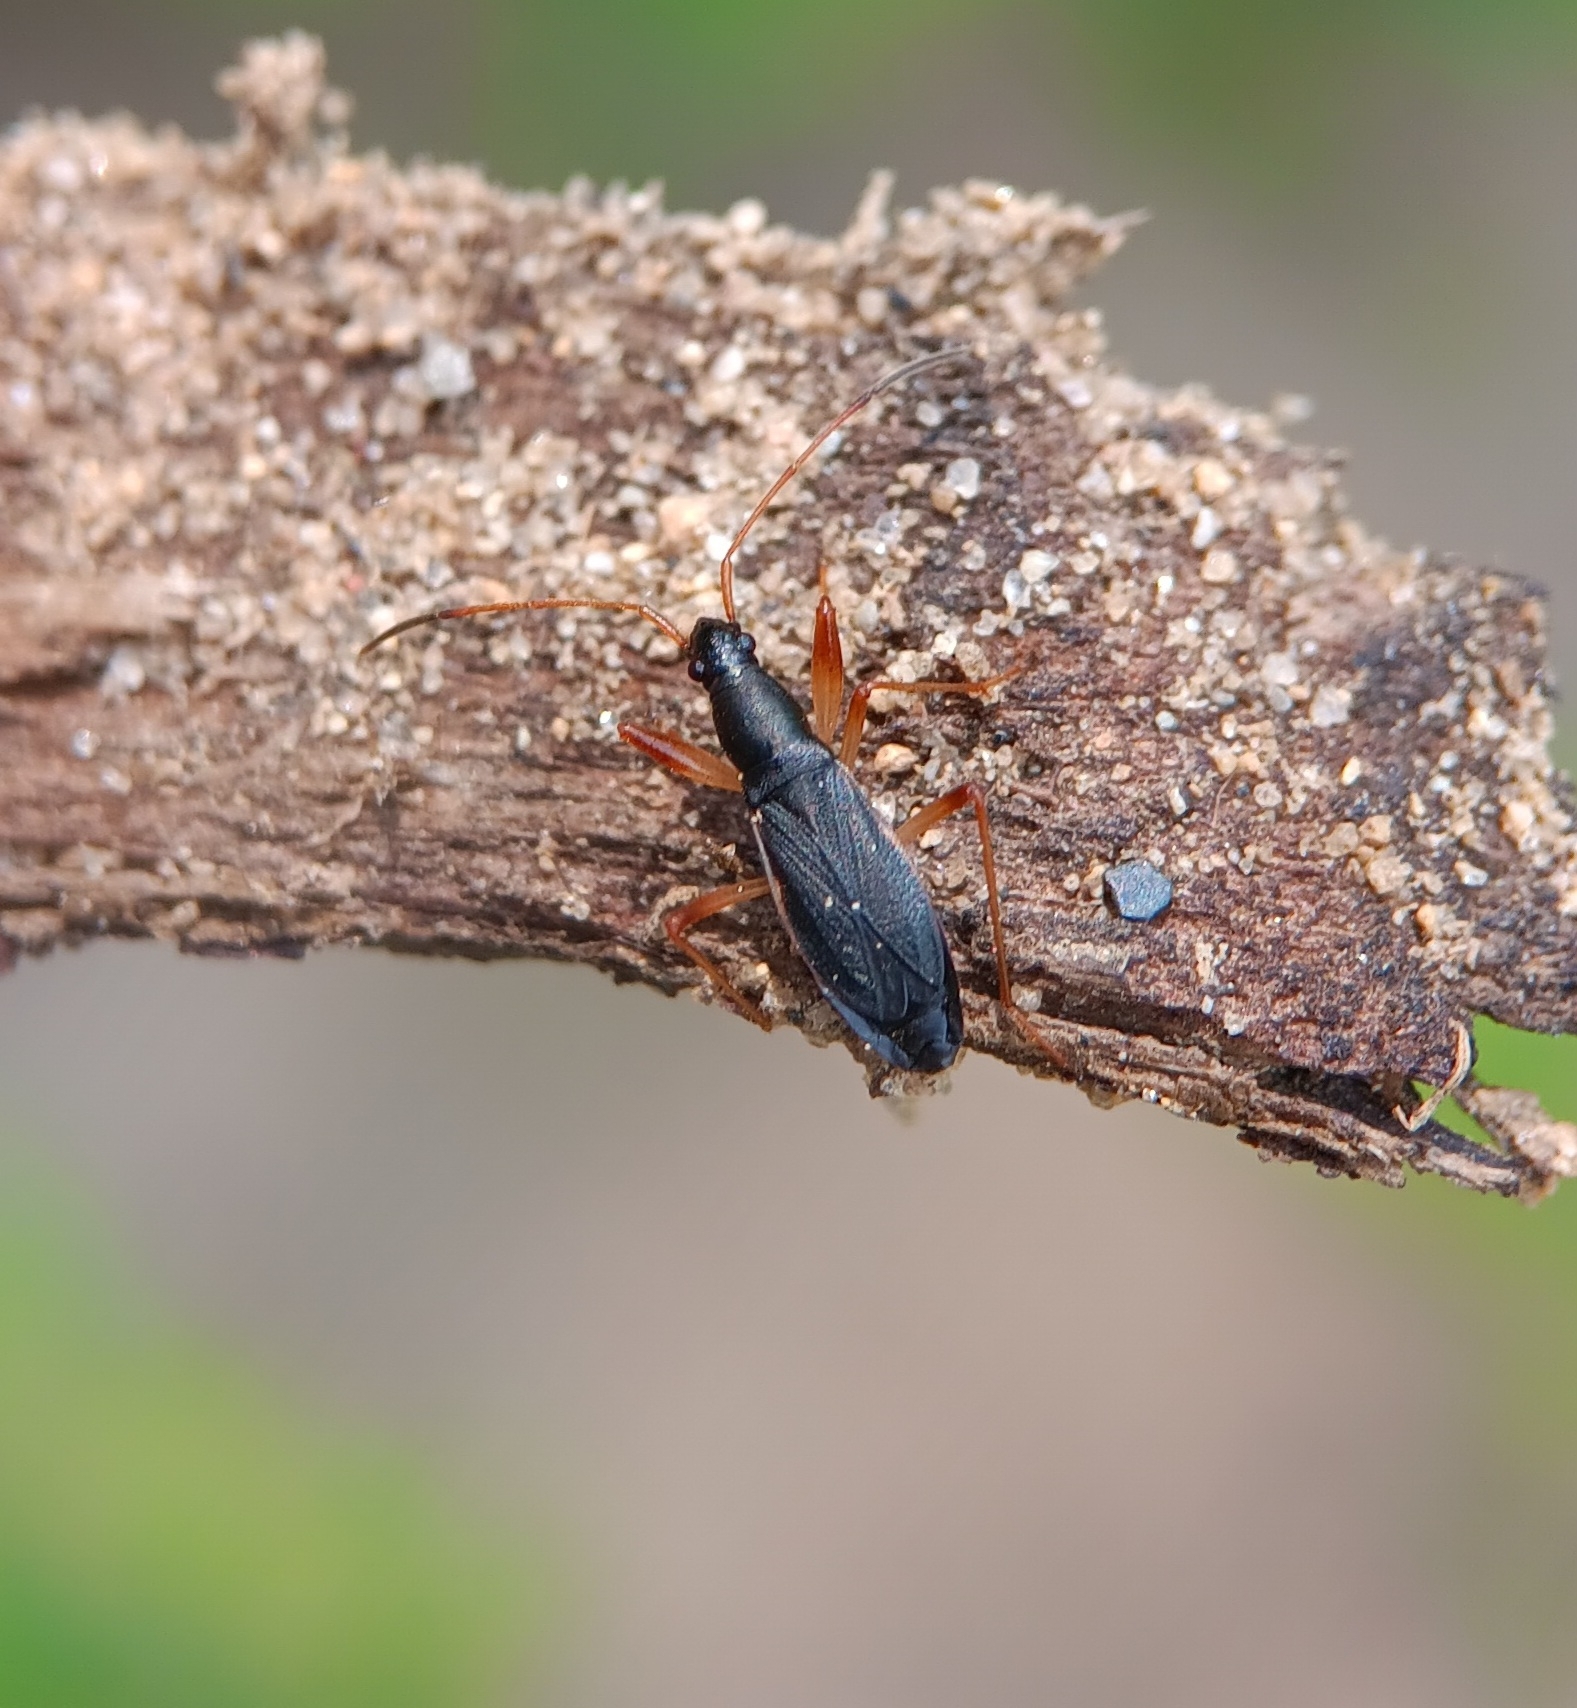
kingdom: Animalia
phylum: Arthropoda
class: Insecta
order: Hemiptera
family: Rhyparochromidae
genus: Cnemodus
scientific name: Cnemodus mavortius
